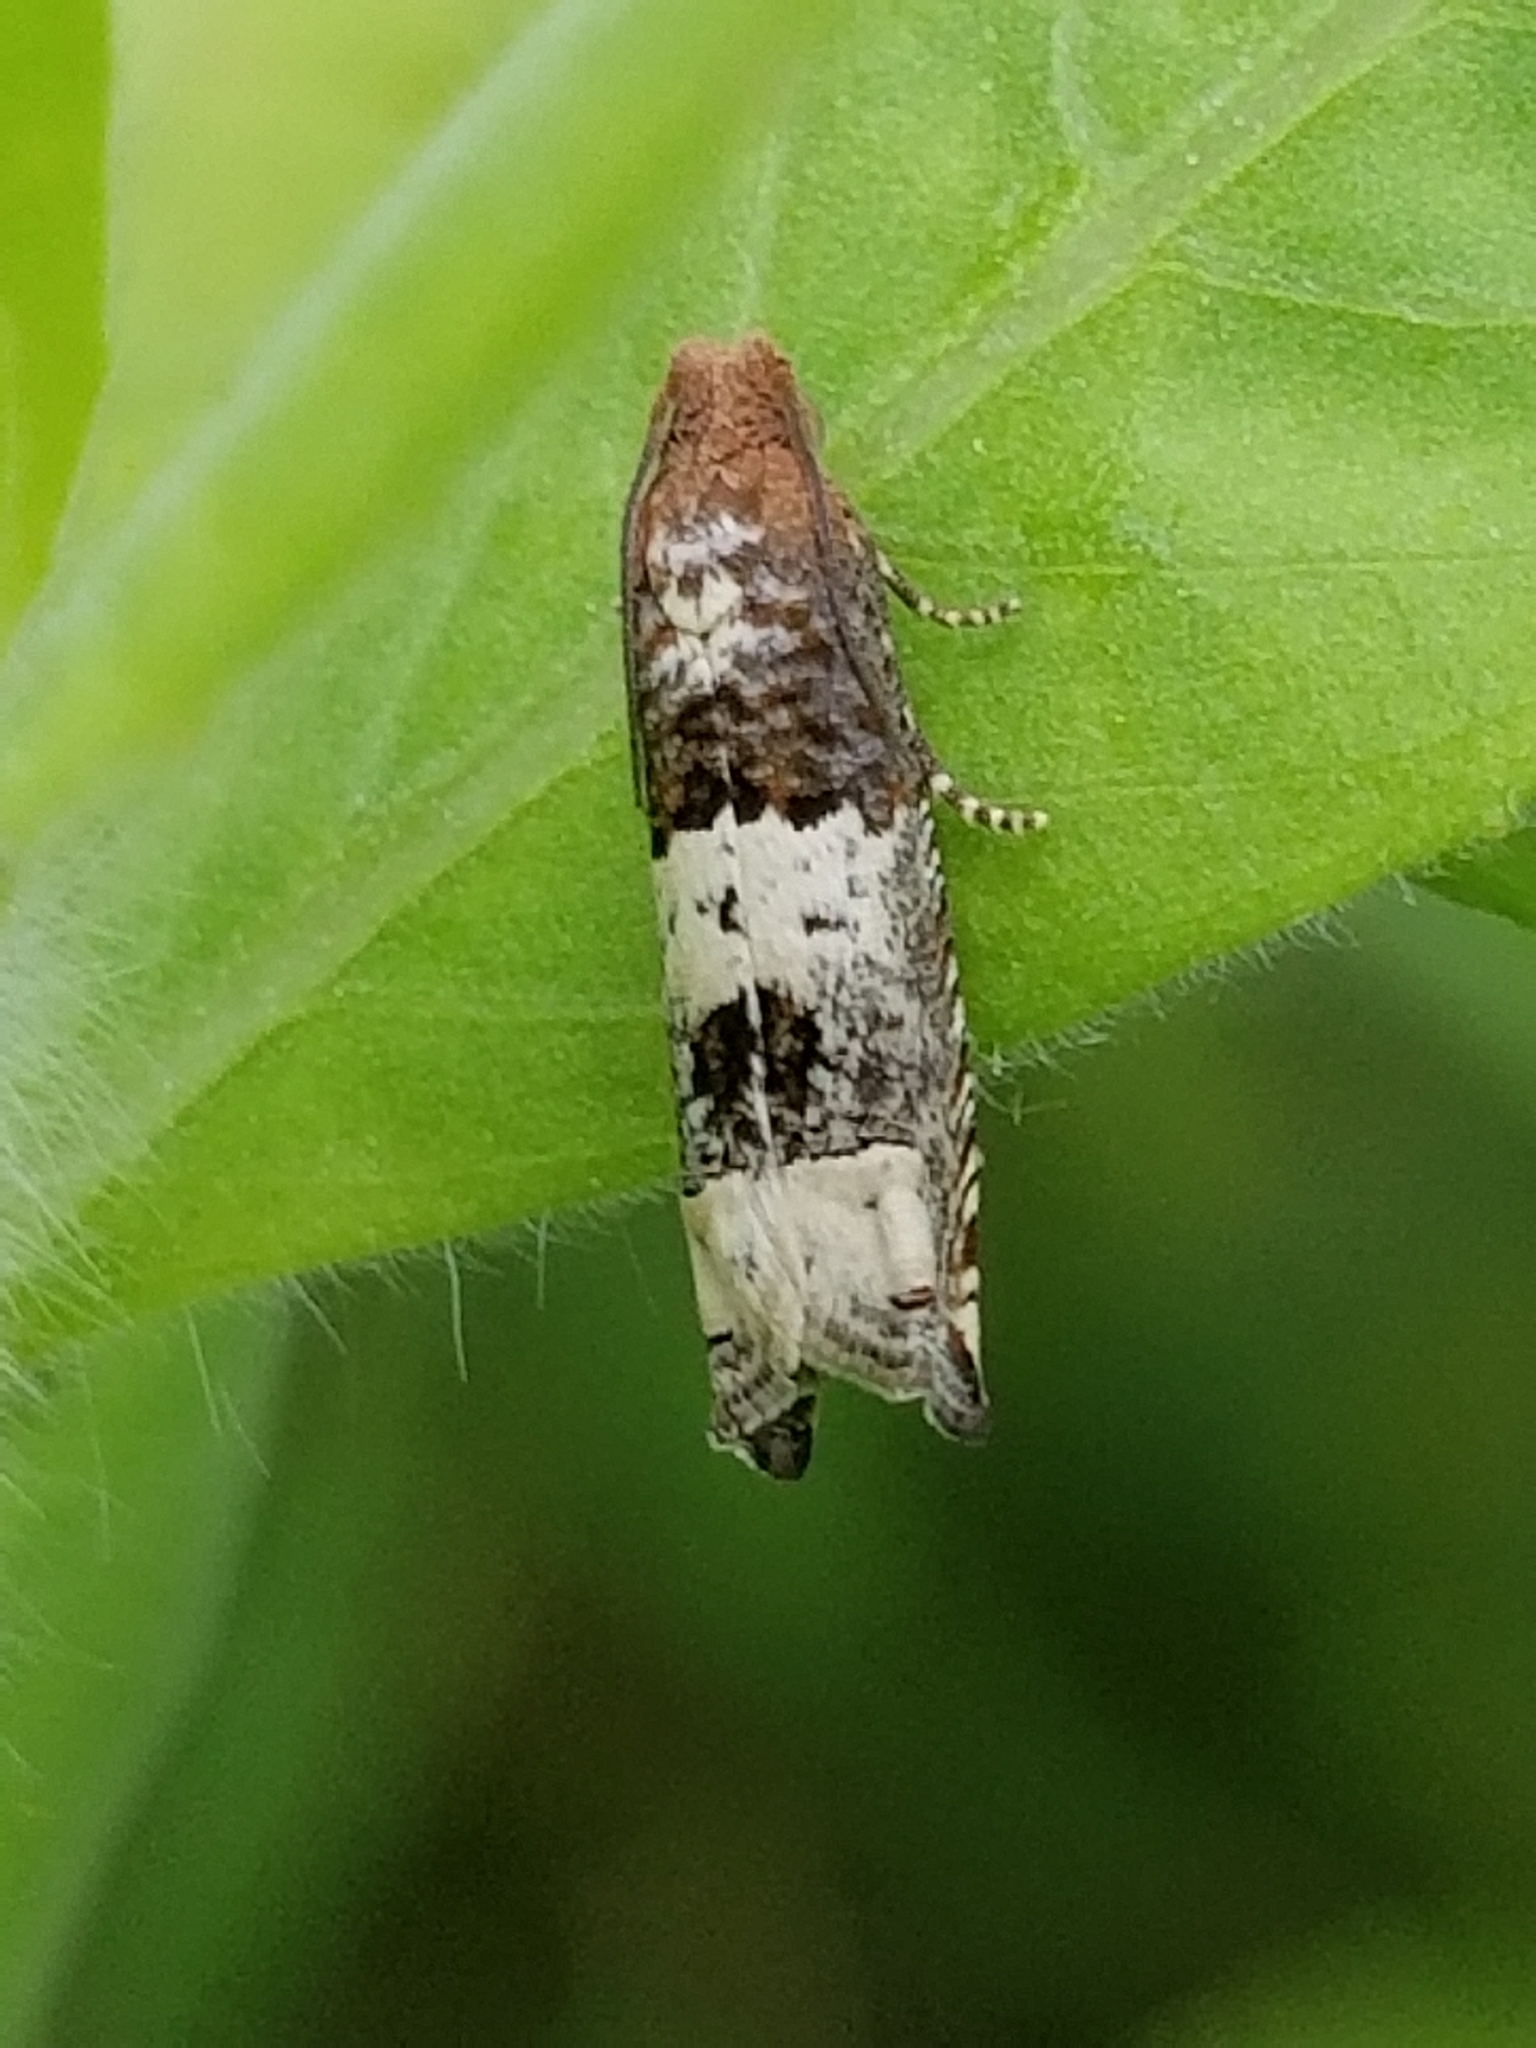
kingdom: Animalia
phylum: Arthropoda
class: Insecta
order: Lepidoptera
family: Tortricidae
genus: Suleima
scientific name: Suleima baracana
